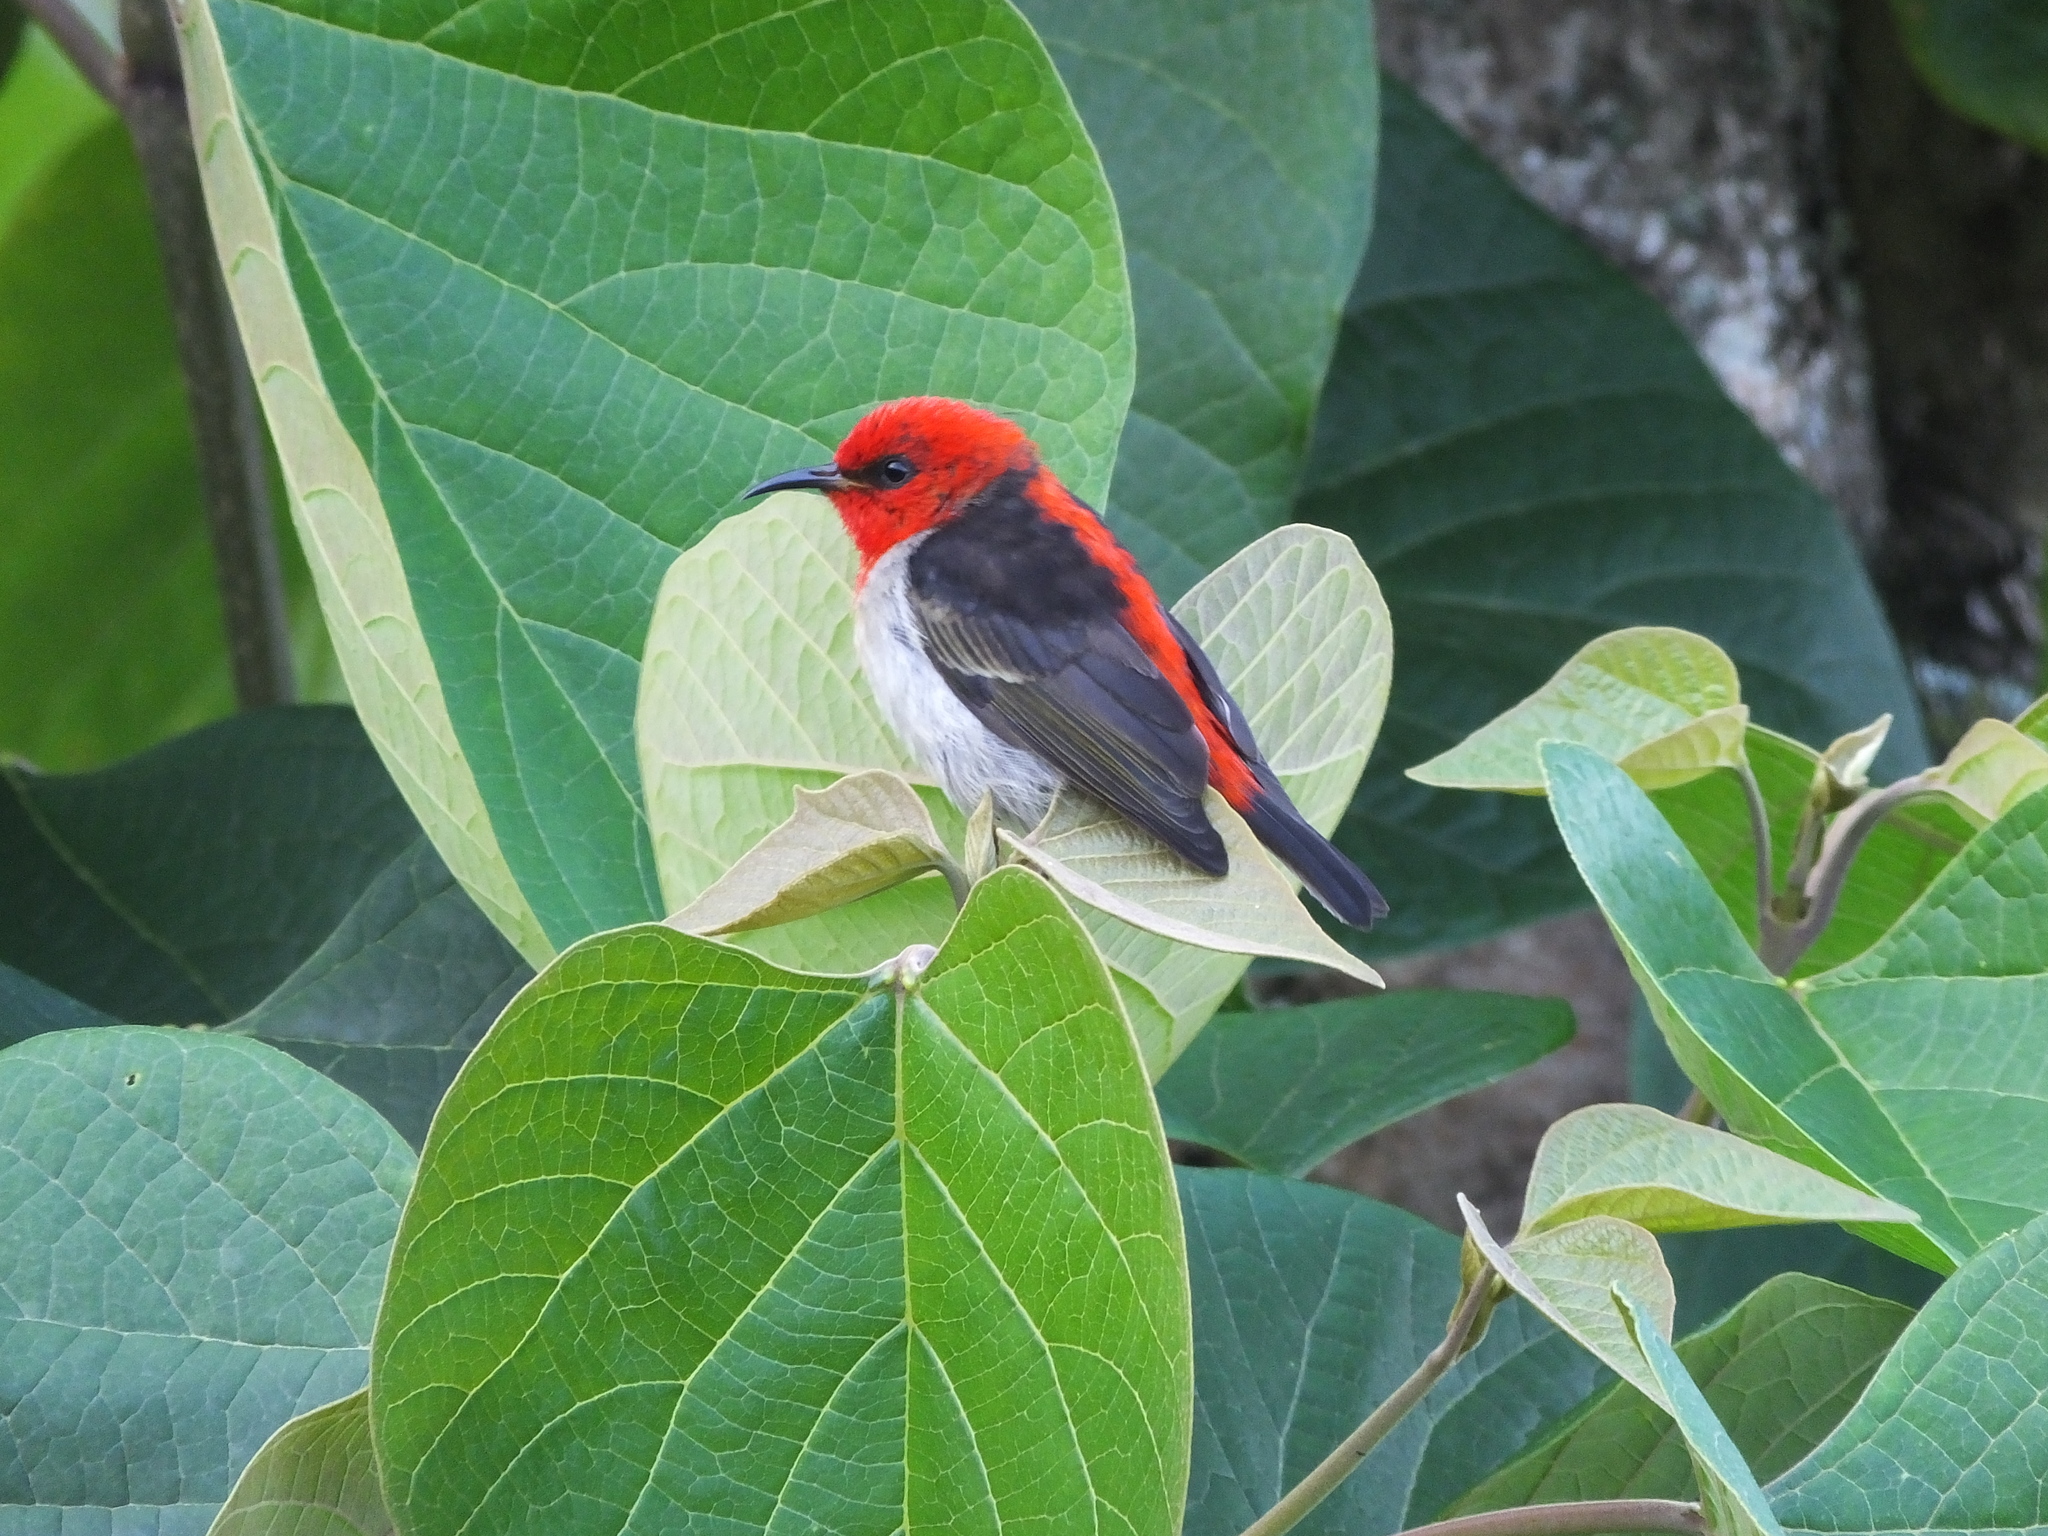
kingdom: Animalia
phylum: Chordata
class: Aves
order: Passeriformes
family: Meliphagidae
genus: Myzomela
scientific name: Myzomela chloroptera
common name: Sulawesi myzomela
